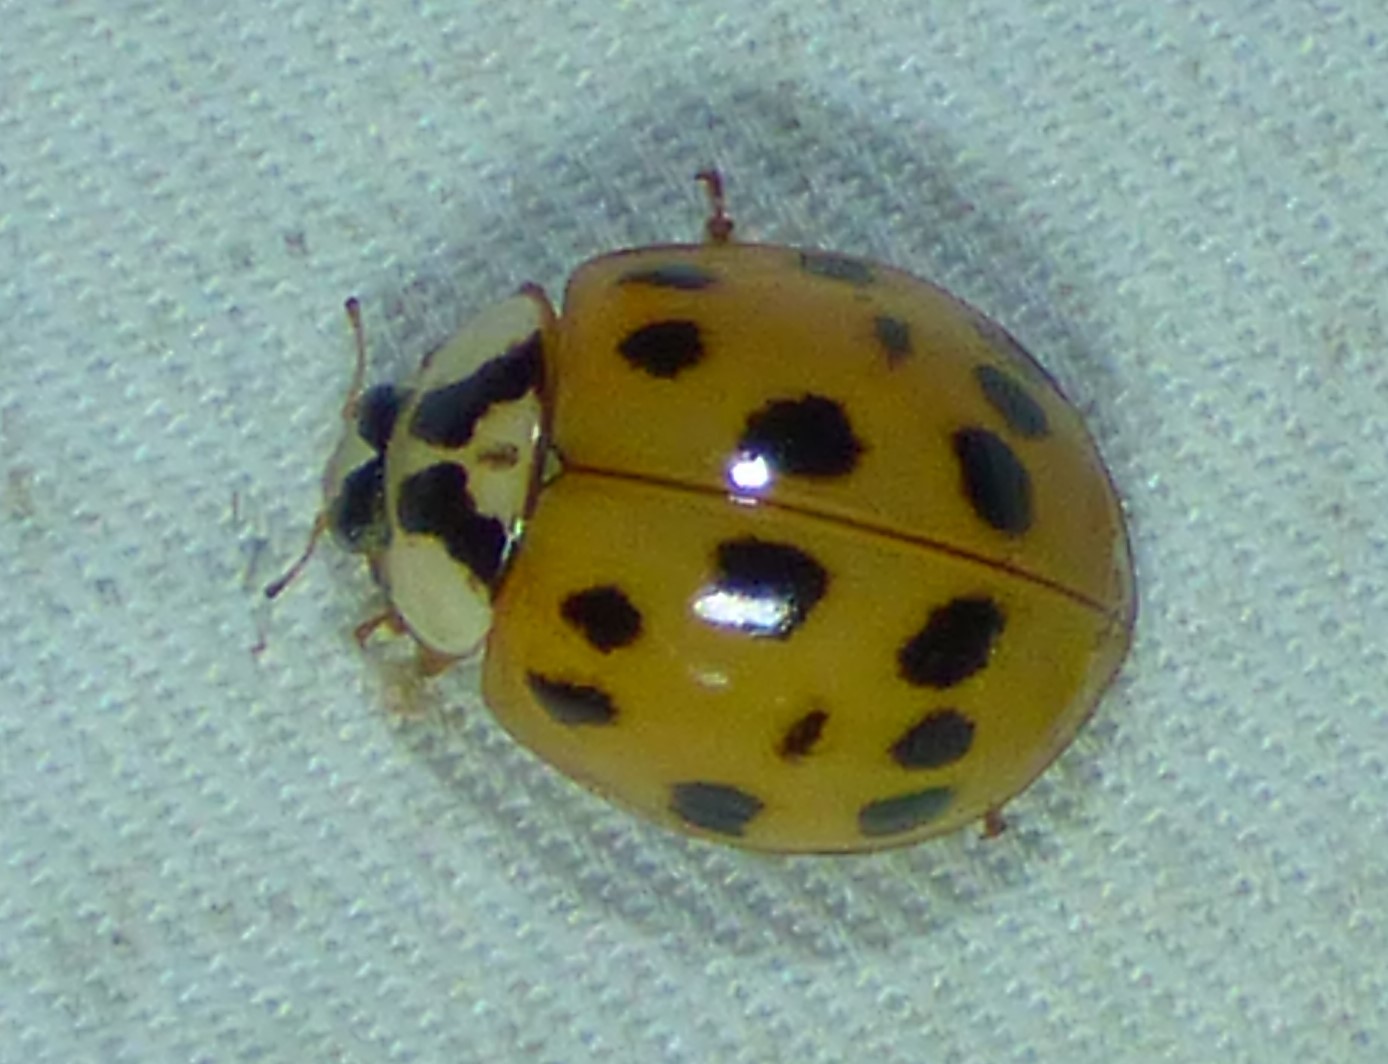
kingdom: Animalia
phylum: Arthropoda
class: Insecta
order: Coleoptera
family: Coccinellidae
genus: Harmonia
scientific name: Harmonia axyridis
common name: Harlequin ladybird
